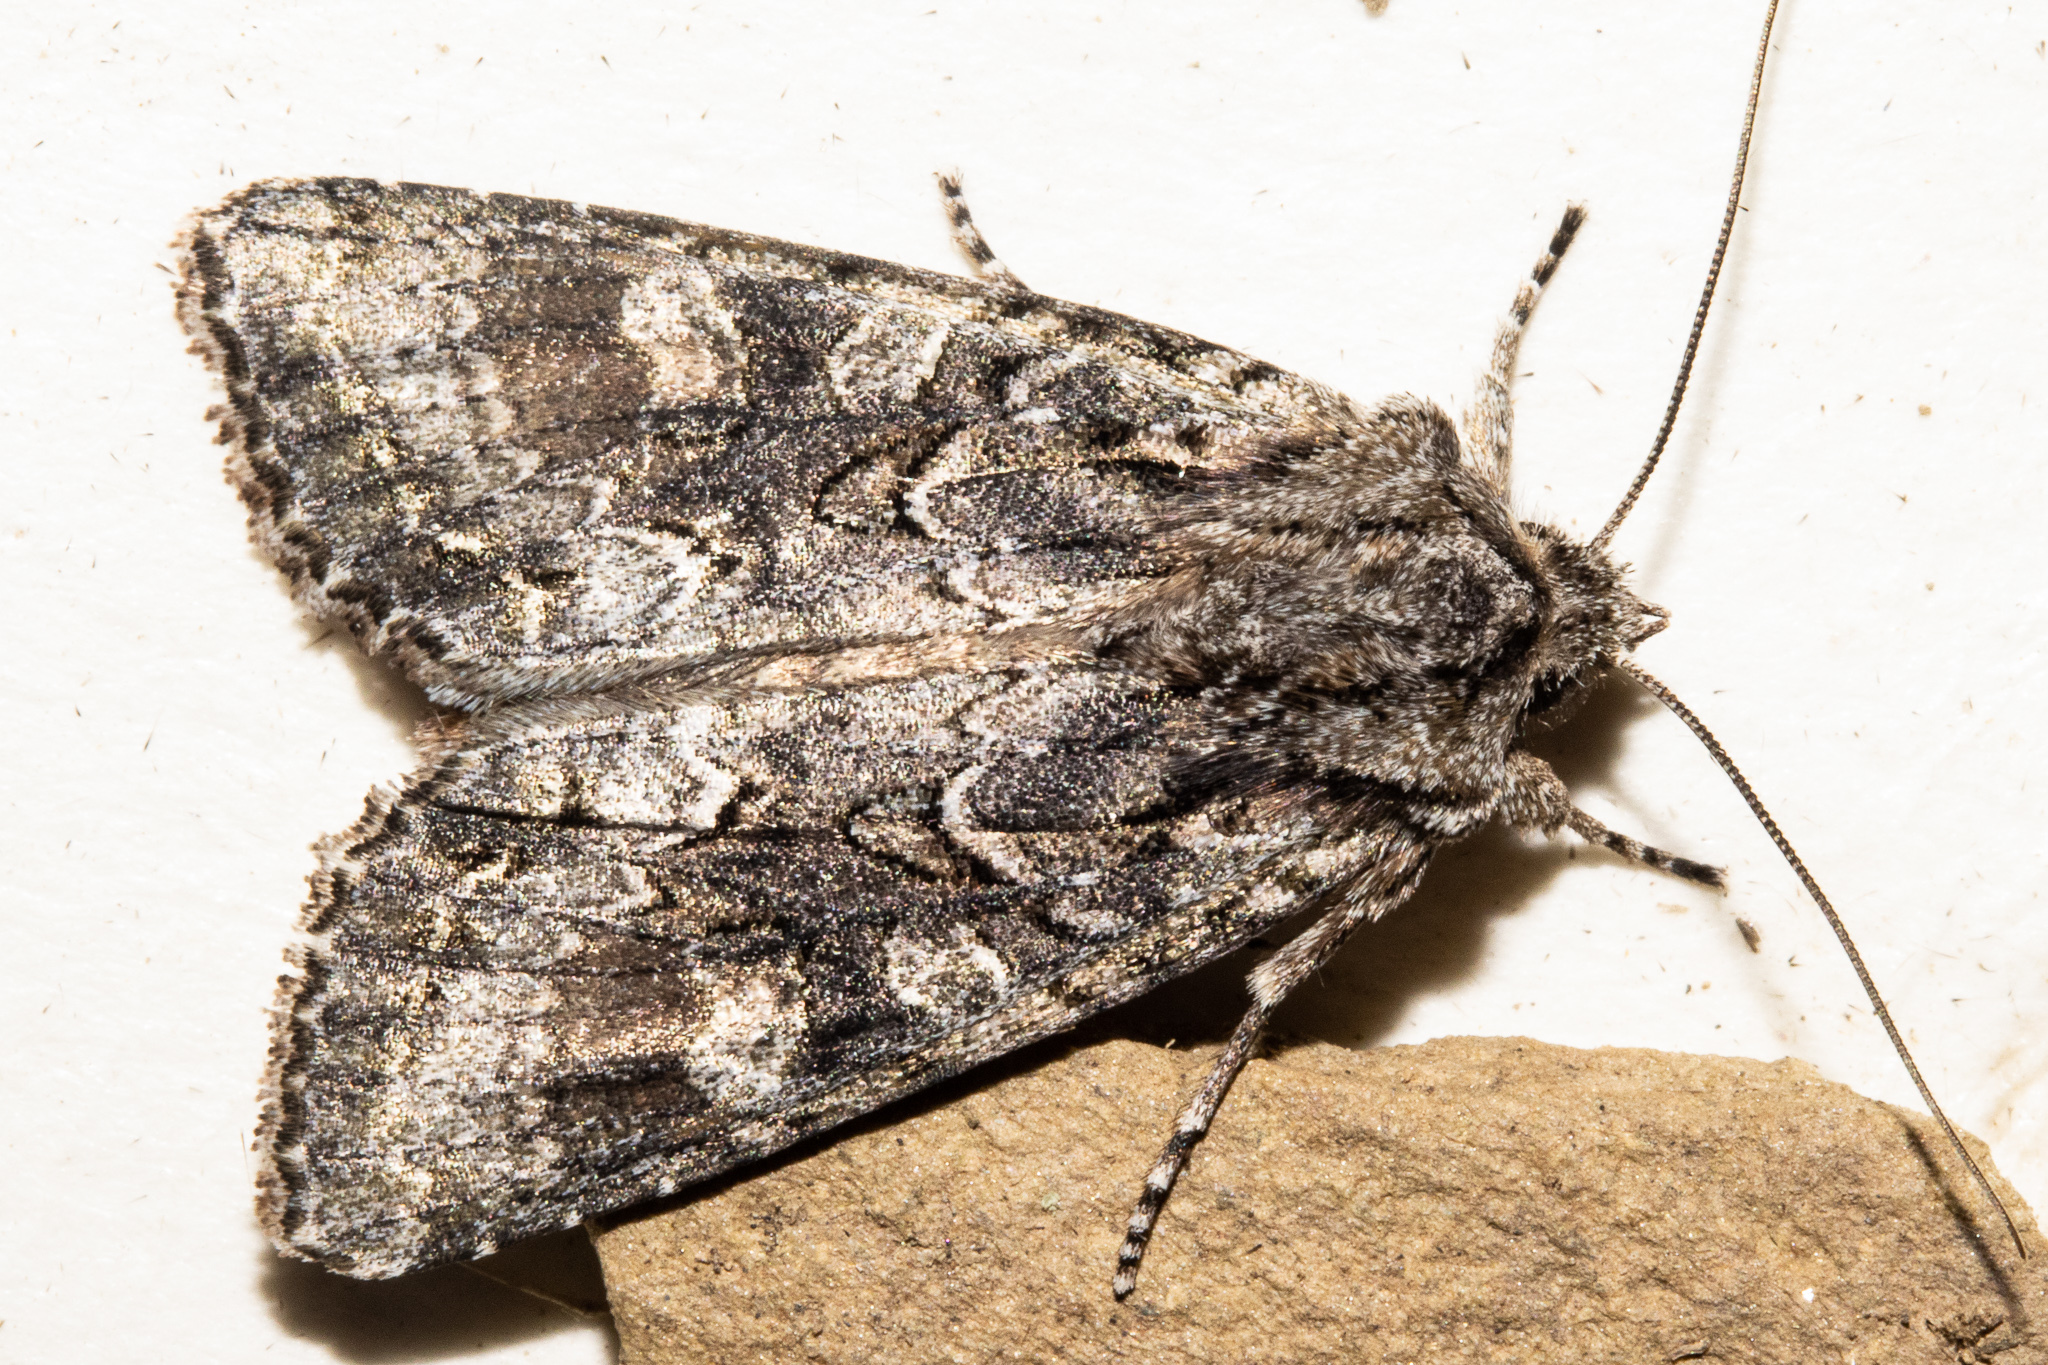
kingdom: Animalia
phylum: Arthropoda
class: Insecta
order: Lepidoptera
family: Noctuidae
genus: Ichneutica
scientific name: Ichneutica mutans
